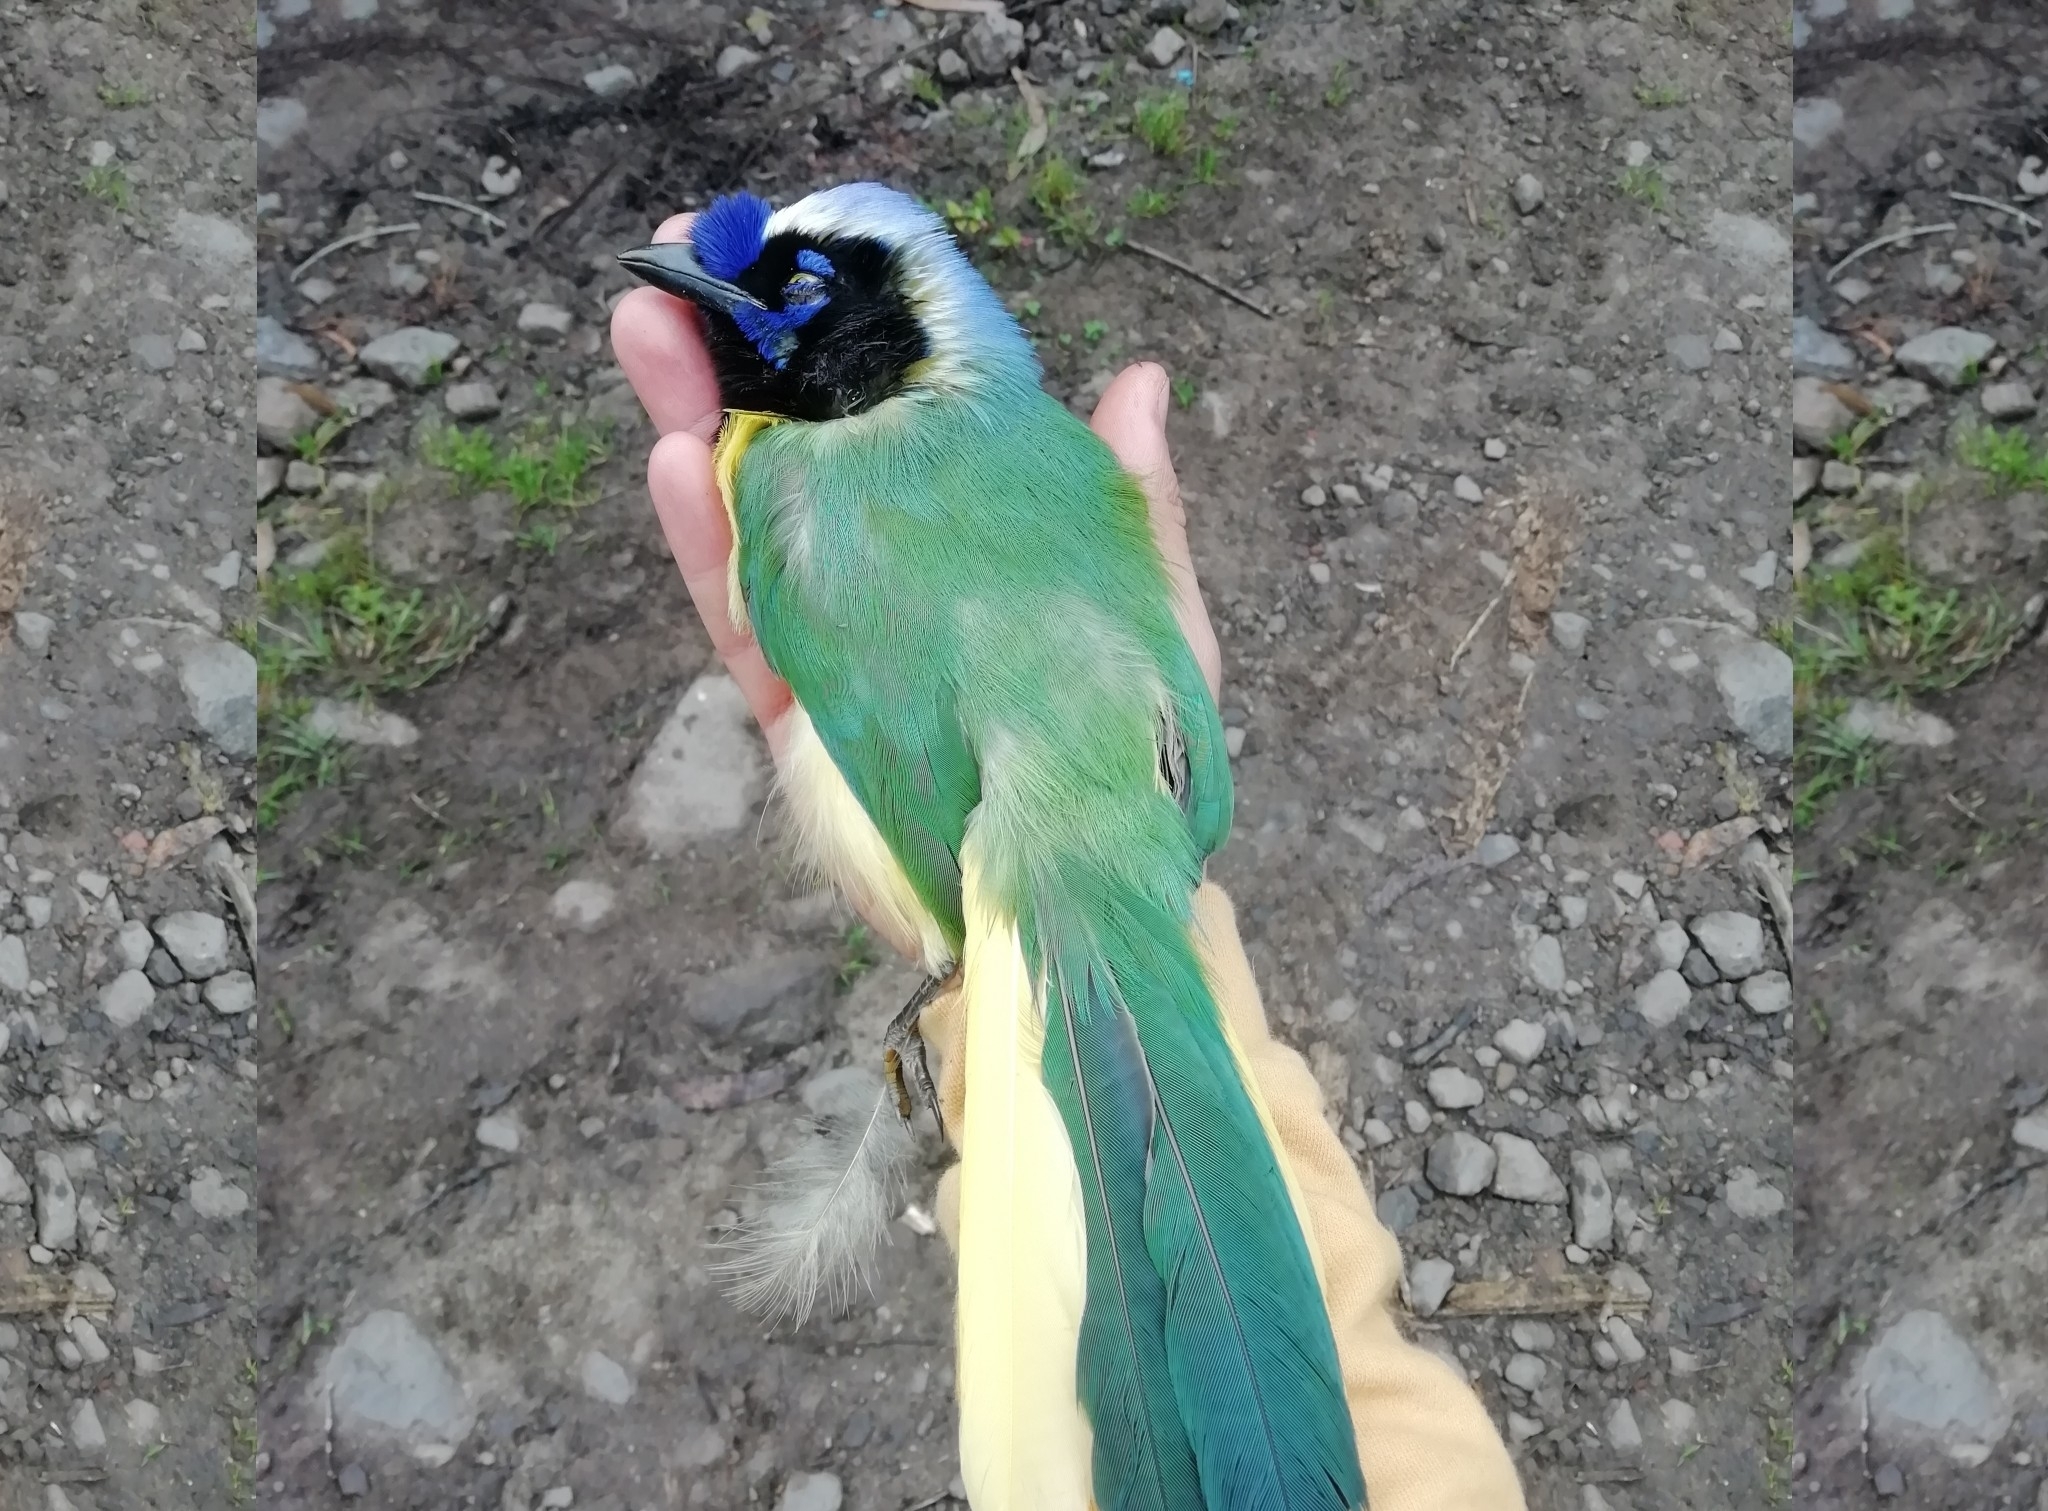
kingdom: Animalia
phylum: Chordata
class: Aves
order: Passeriformes
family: Corvidae
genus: Cyanocorax
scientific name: Cyanocorax yncas
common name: Green jay
